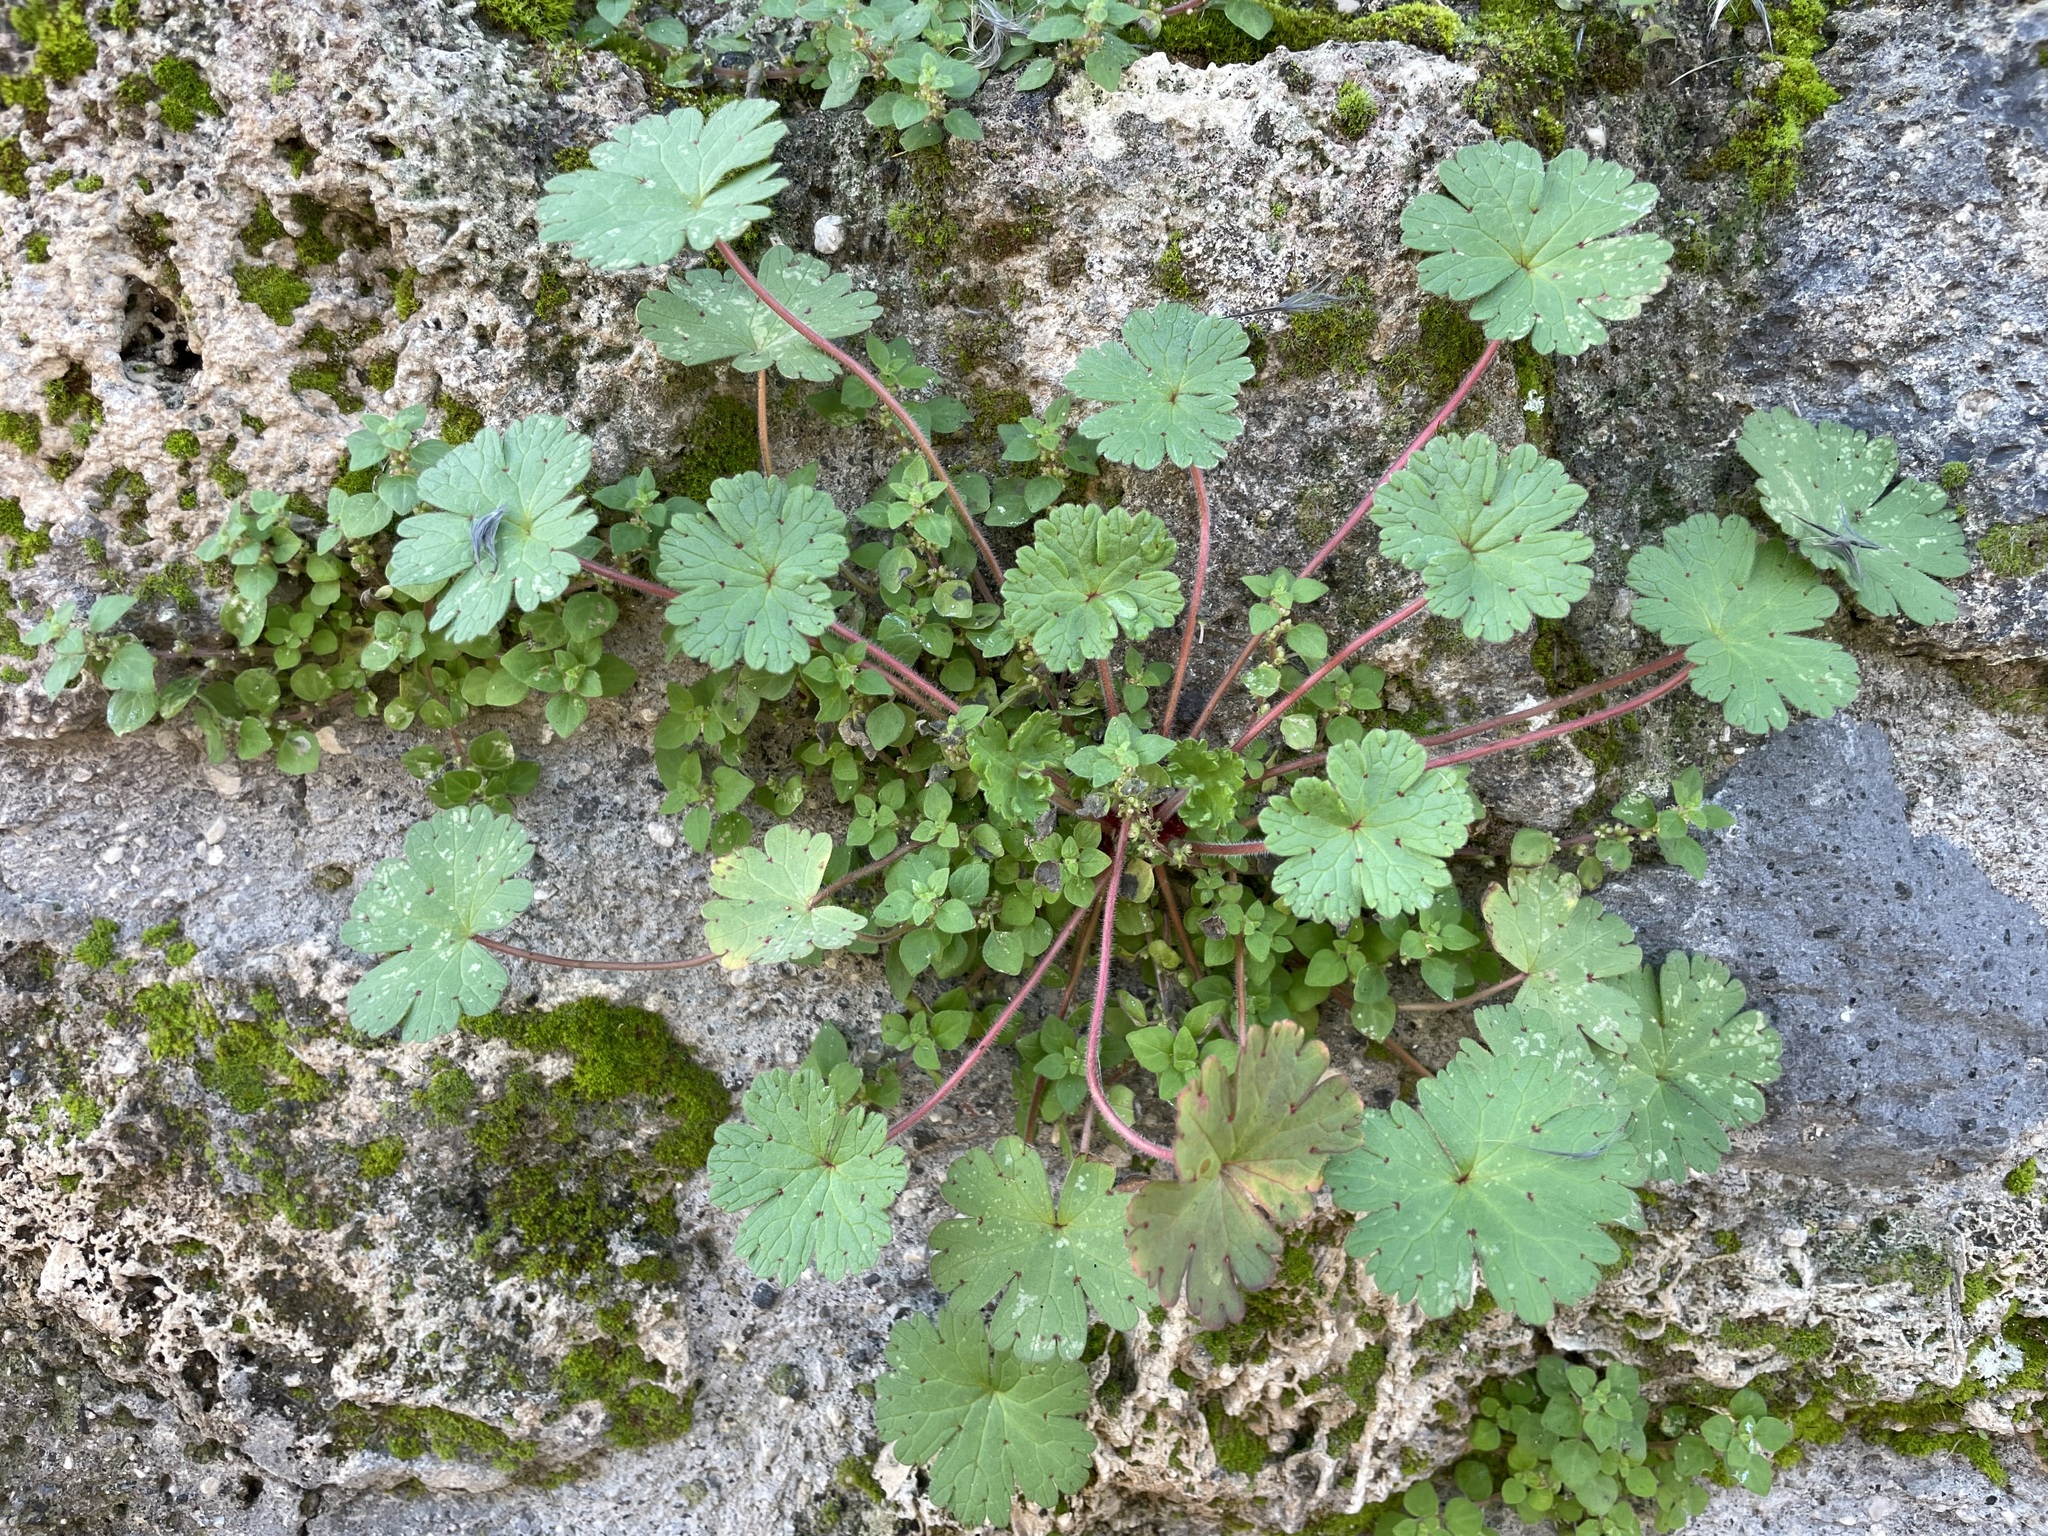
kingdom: Plantae
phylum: Tracheophyta
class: Magnoliopsida
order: Geraniales
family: Geraniaceae
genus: Geranium
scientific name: Geranium rotundifolium
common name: Round-leaved crane's-bill
